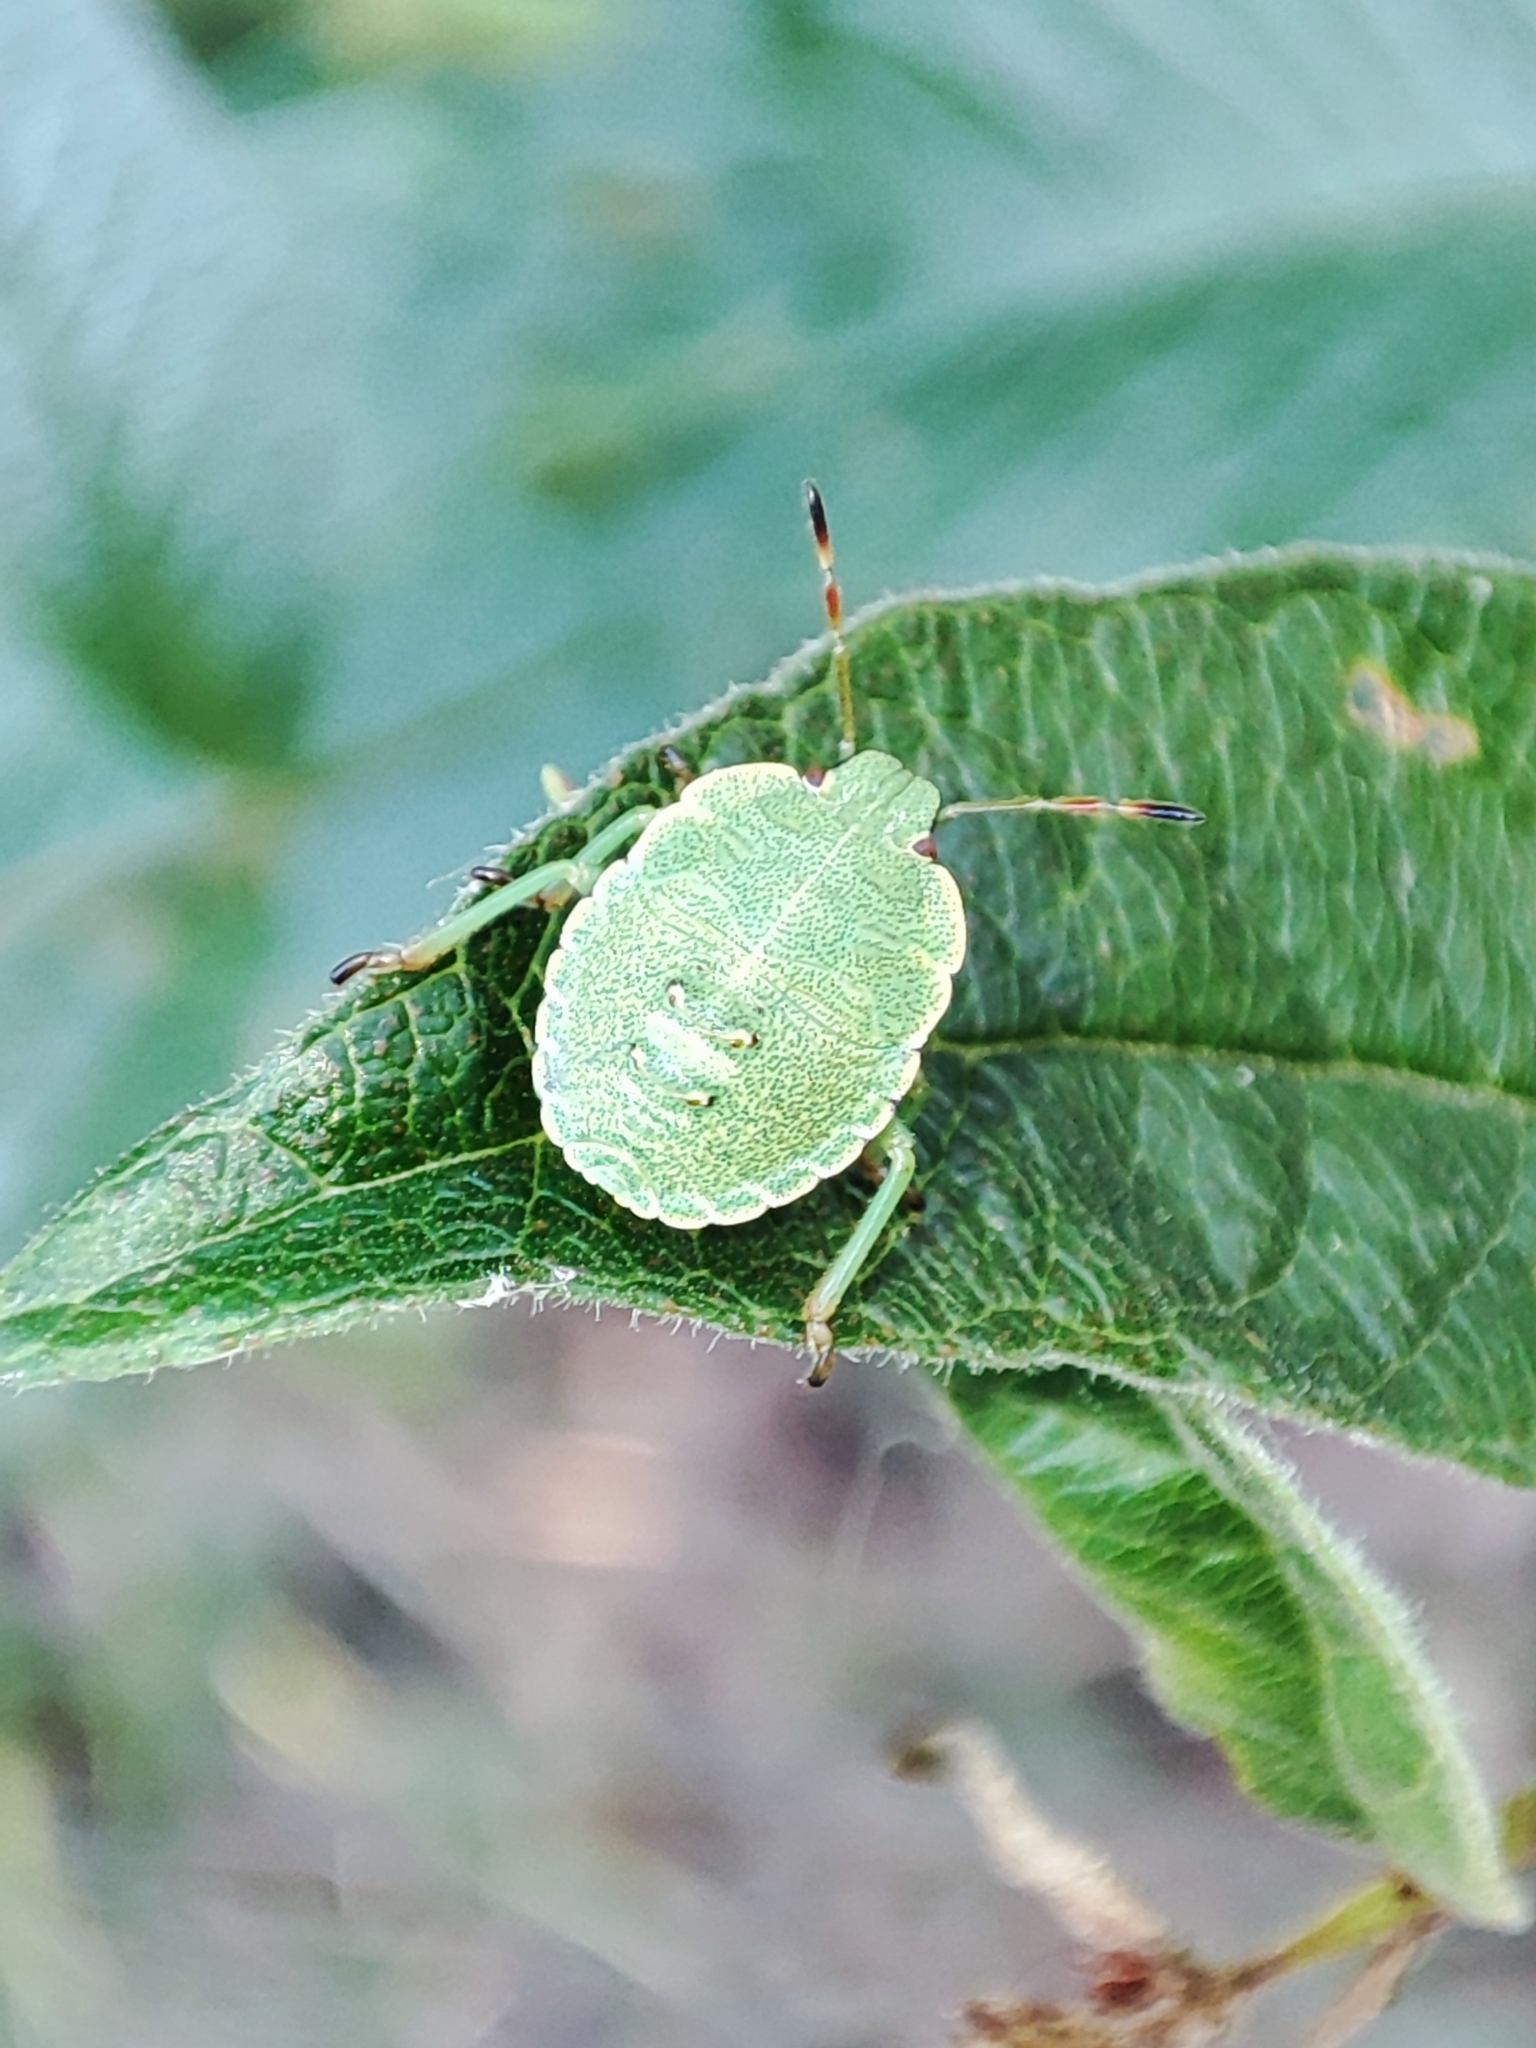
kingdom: Animalia
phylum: Arthropoda
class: Insecta
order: Hemiptera
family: Pentatomidae
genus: Palomena
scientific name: Palomena prasina
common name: Green shieldbug
